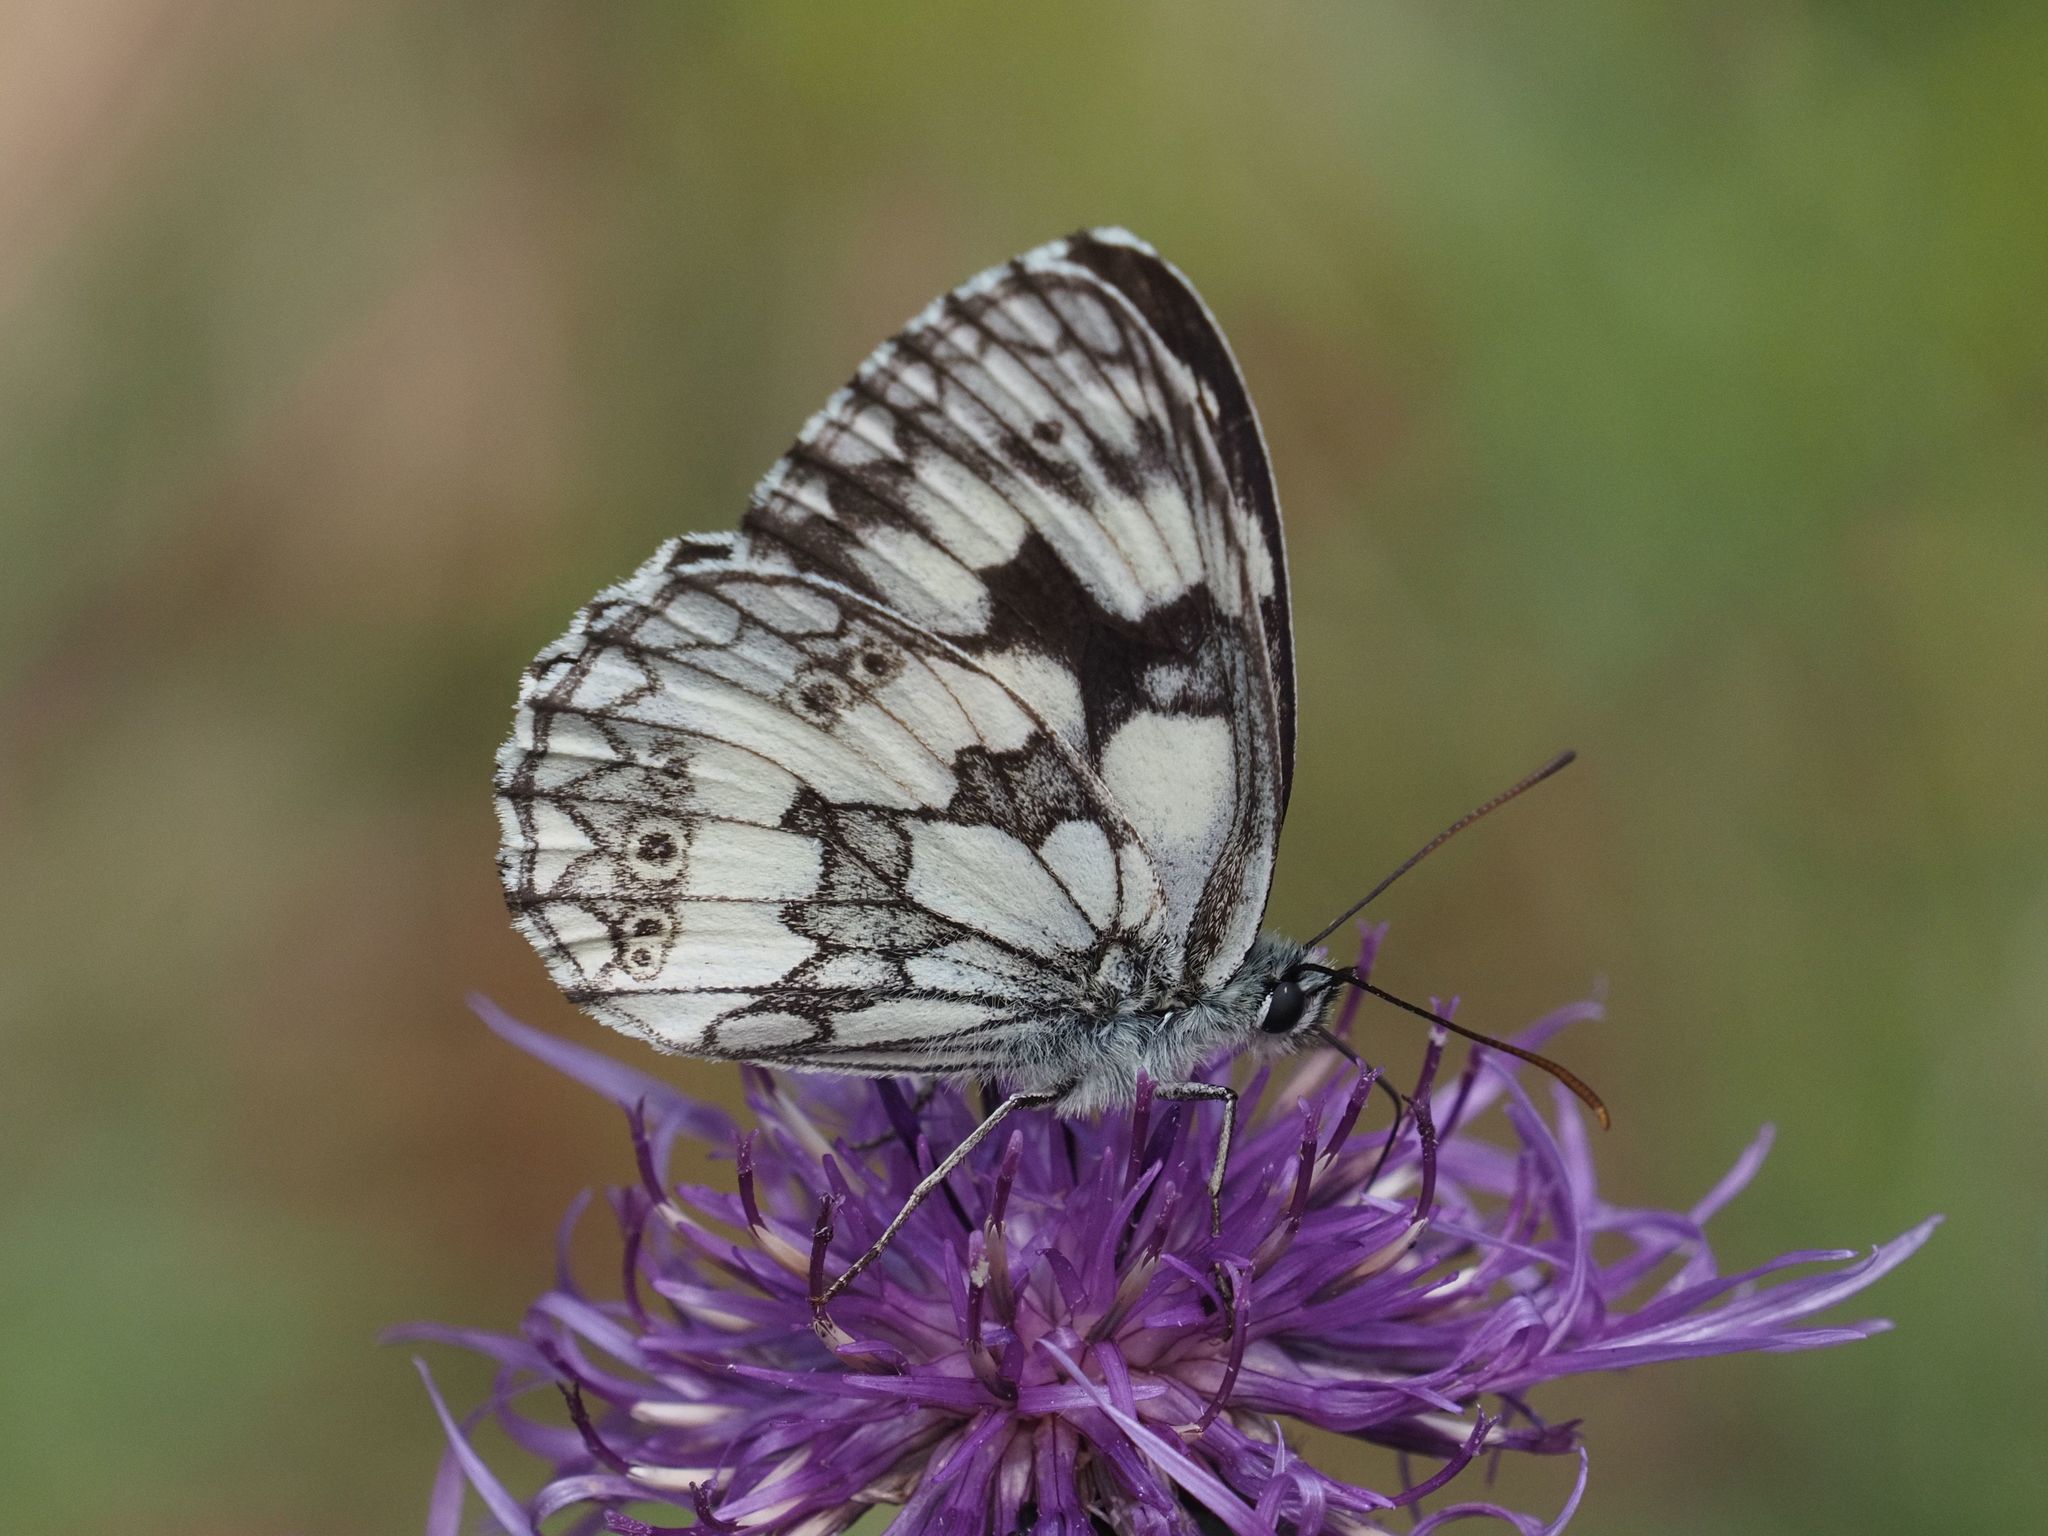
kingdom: Animalia
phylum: Arthropoda
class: Insecta
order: Lepidoptera
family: Nymphalidae
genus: Melanargia
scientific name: Melanargia galathea
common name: Marbled white
